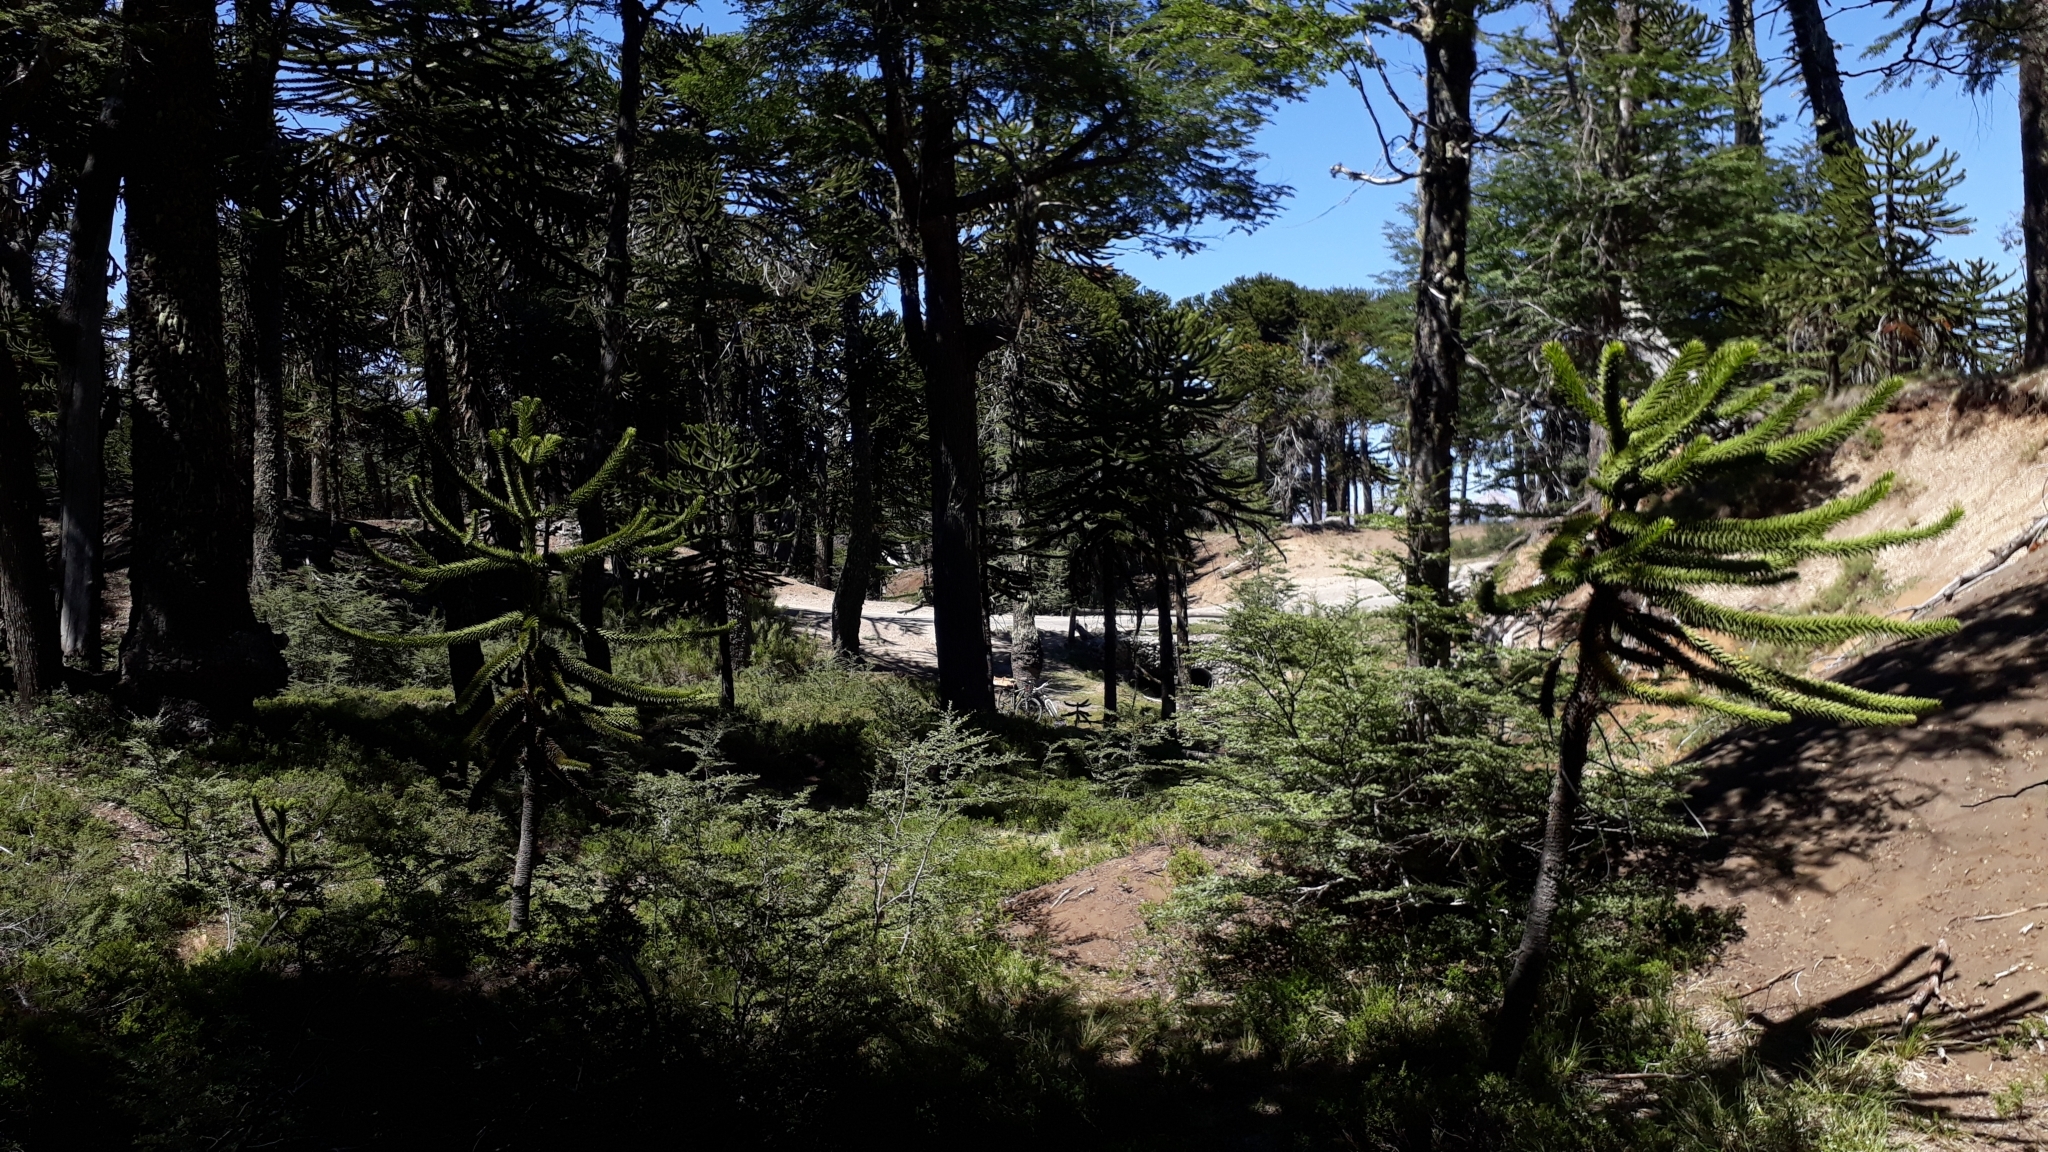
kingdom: Plantae
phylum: Tracheophyta
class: Pinopsida
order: Pinales
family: Araucariaceae
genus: Araucaria
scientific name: Araucaria araucana
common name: Monkey-puzzle
